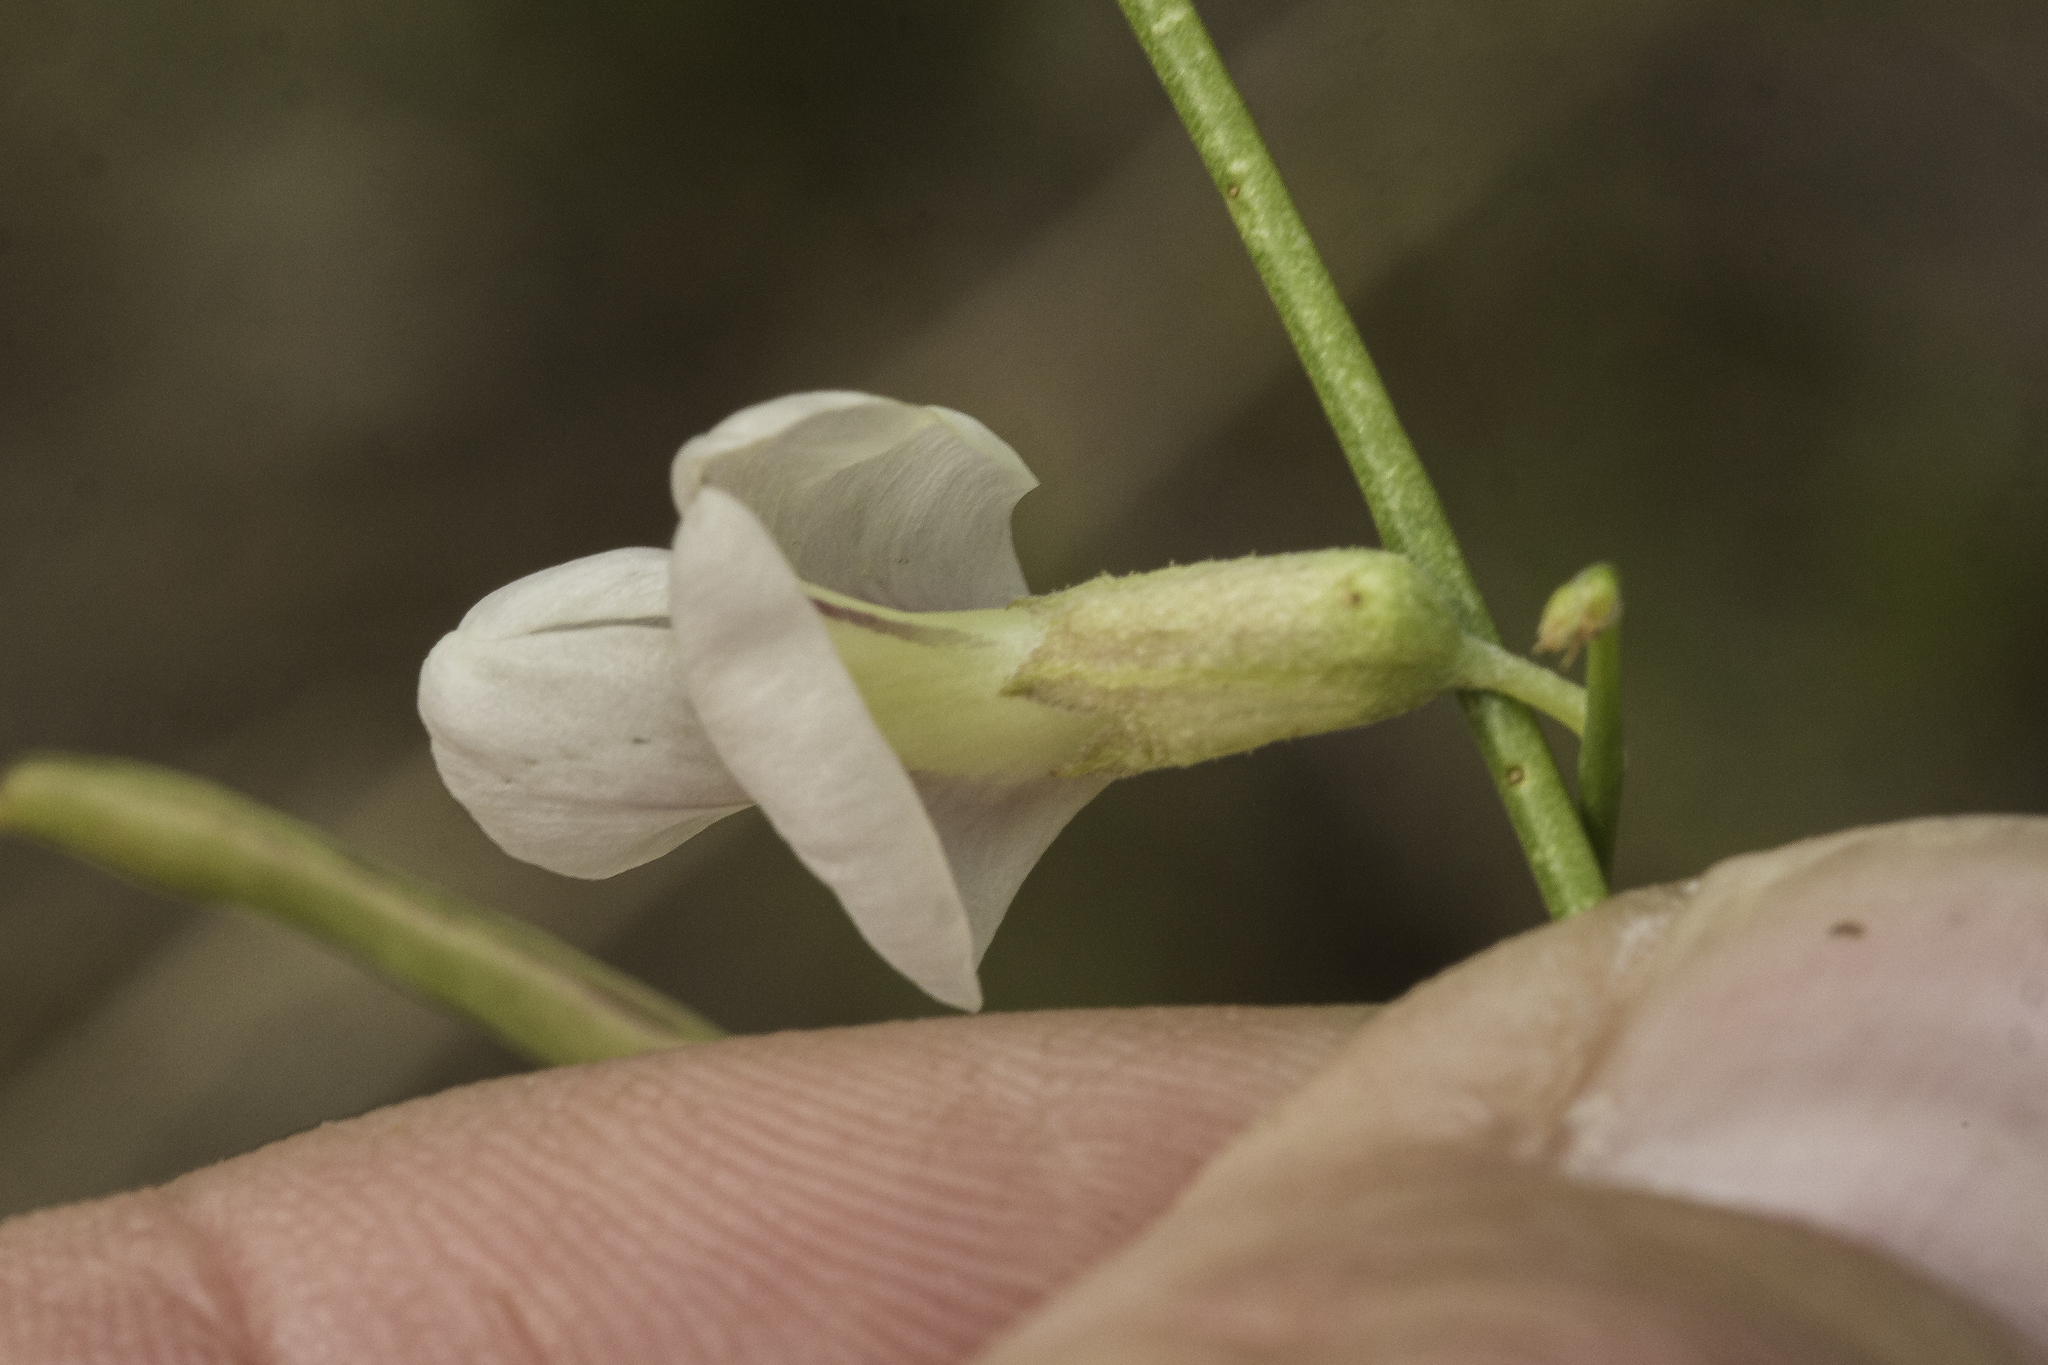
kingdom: Plantae
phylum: Tracheophyta
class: Magnoliopsida
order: Fabales
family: Fabaceae
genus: Peteria
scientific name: Peteria scoparia
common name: Camote del monte
